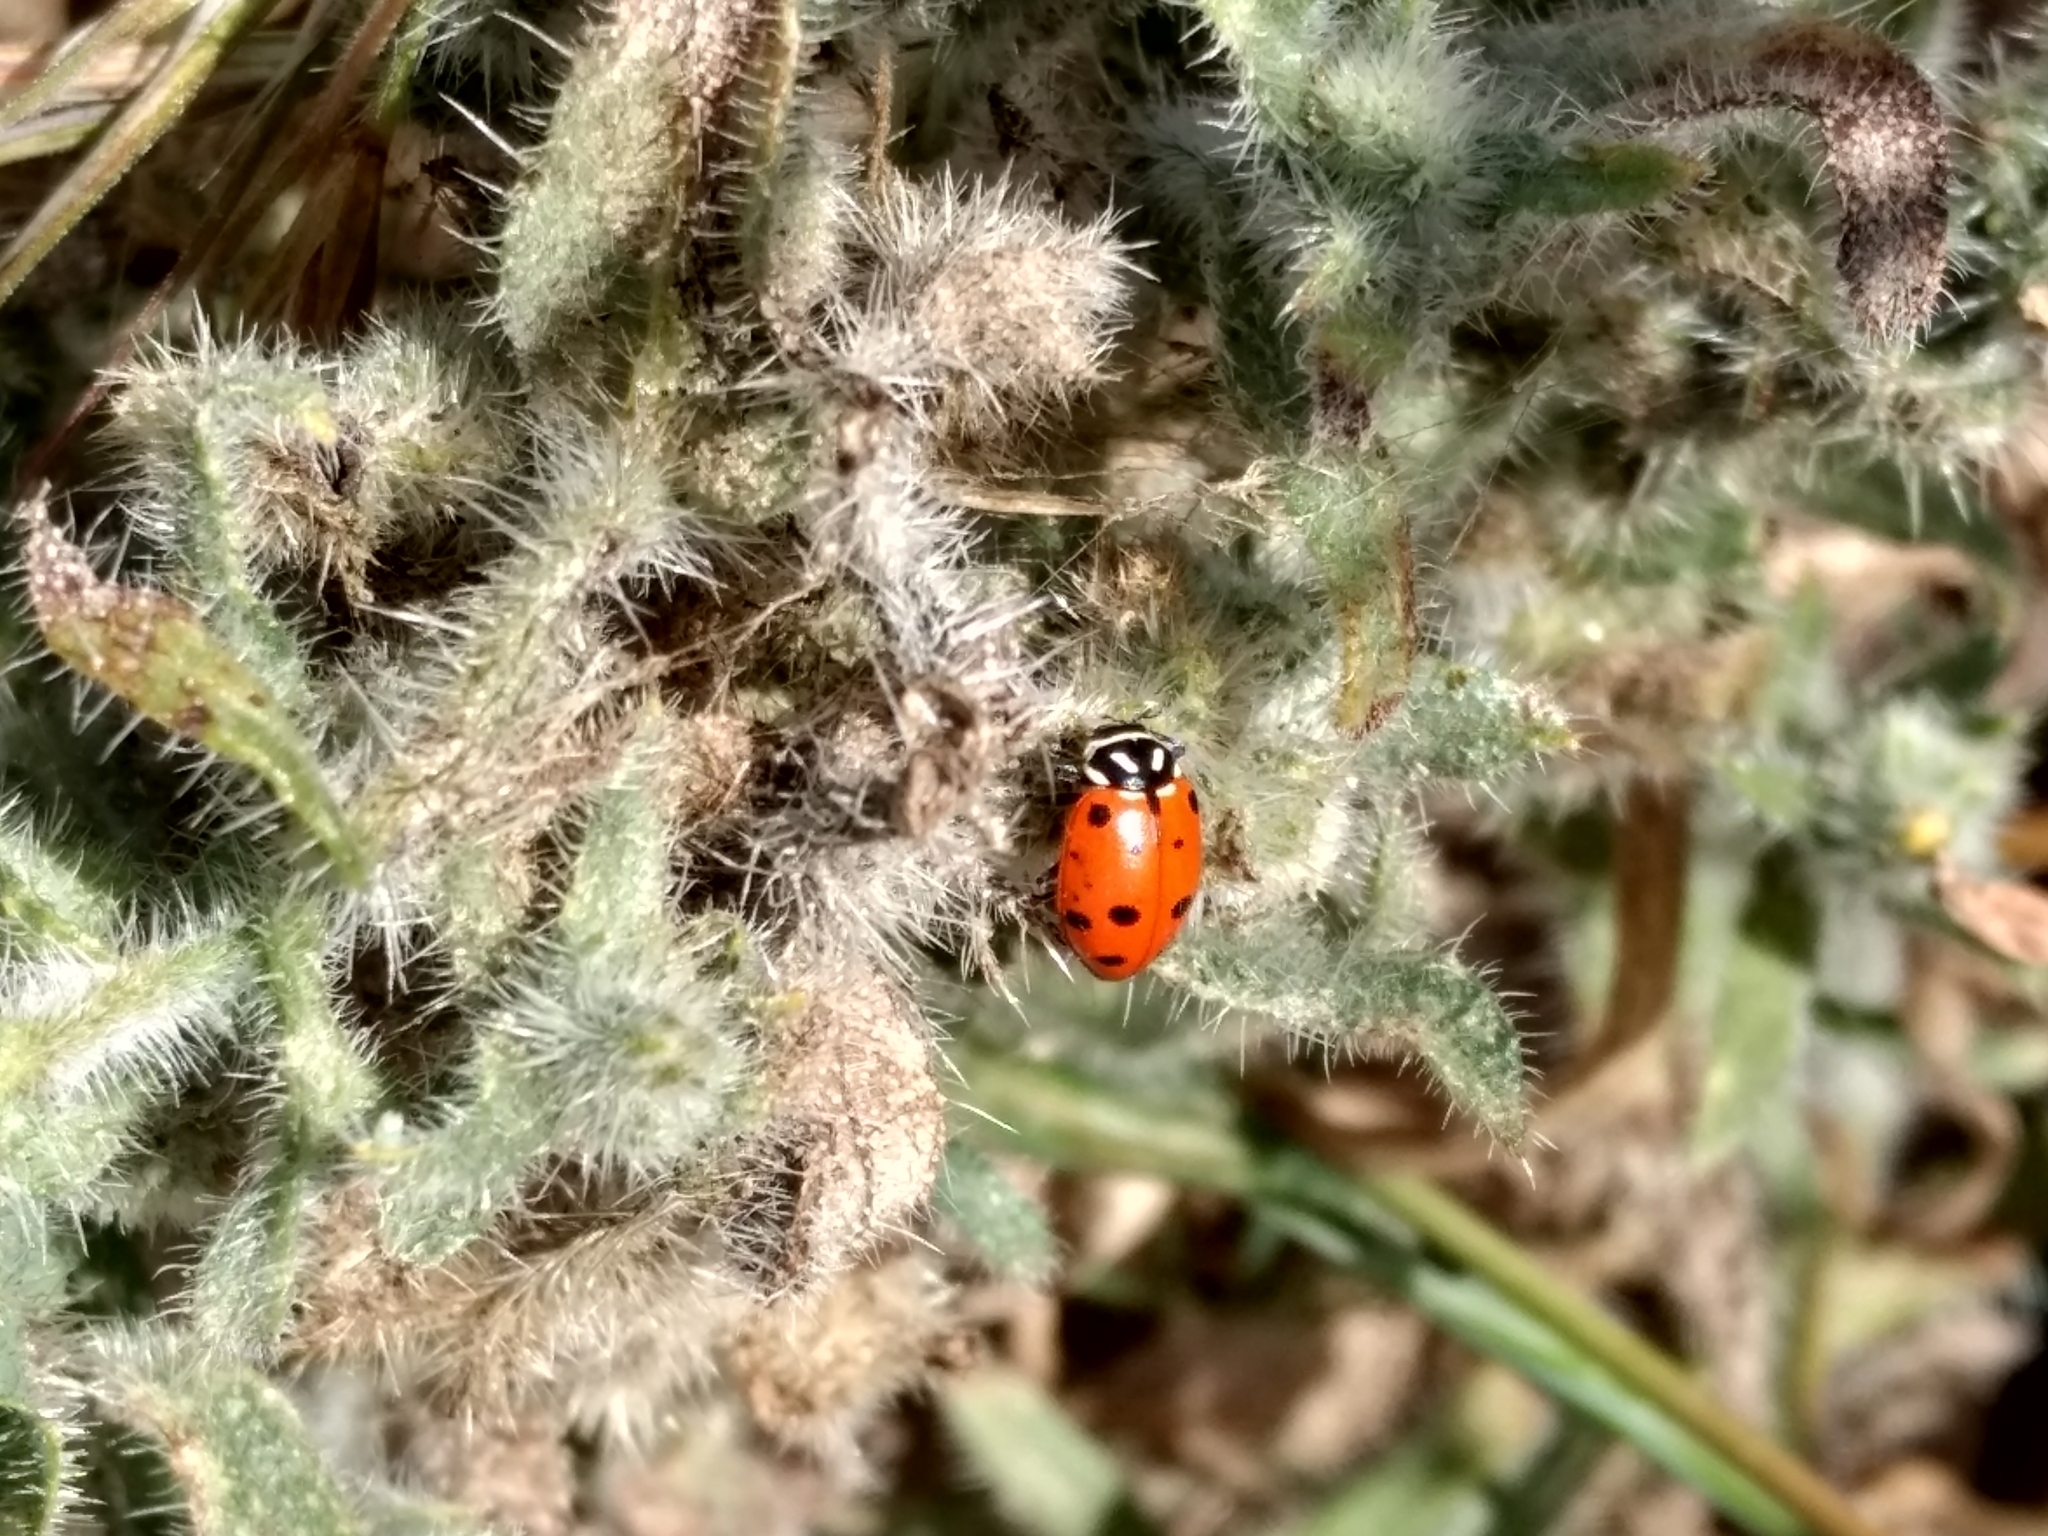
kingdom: Animalia
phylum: Arthropoda
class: Insecta
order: Coleoptera
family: Coccinellidae
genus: Hippodamia
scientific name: Hippodamia convergens
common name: Convergent lady beetle
